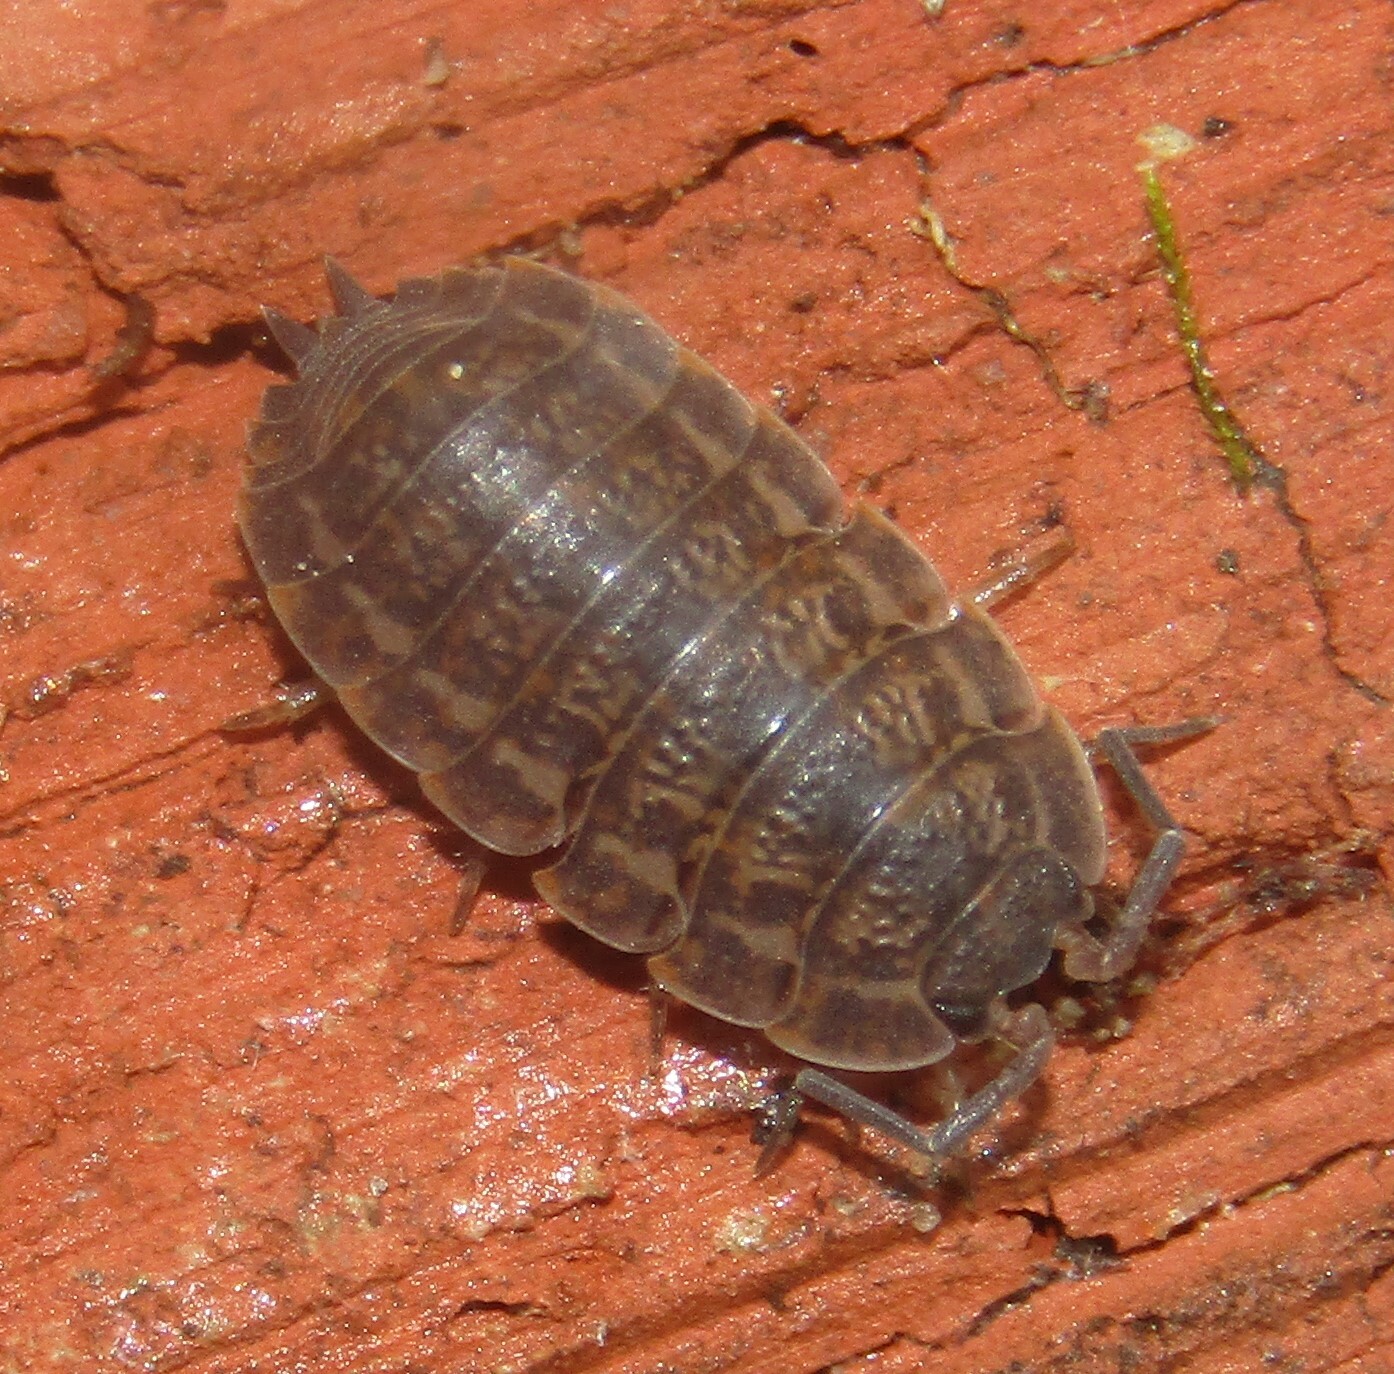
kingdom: Animalia
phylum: Arthropoda
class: Malacostraca
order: Isopoda
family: Trachelipodidae
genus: Trachelipus
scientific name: Trachelipus rathkii
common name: Isopod
